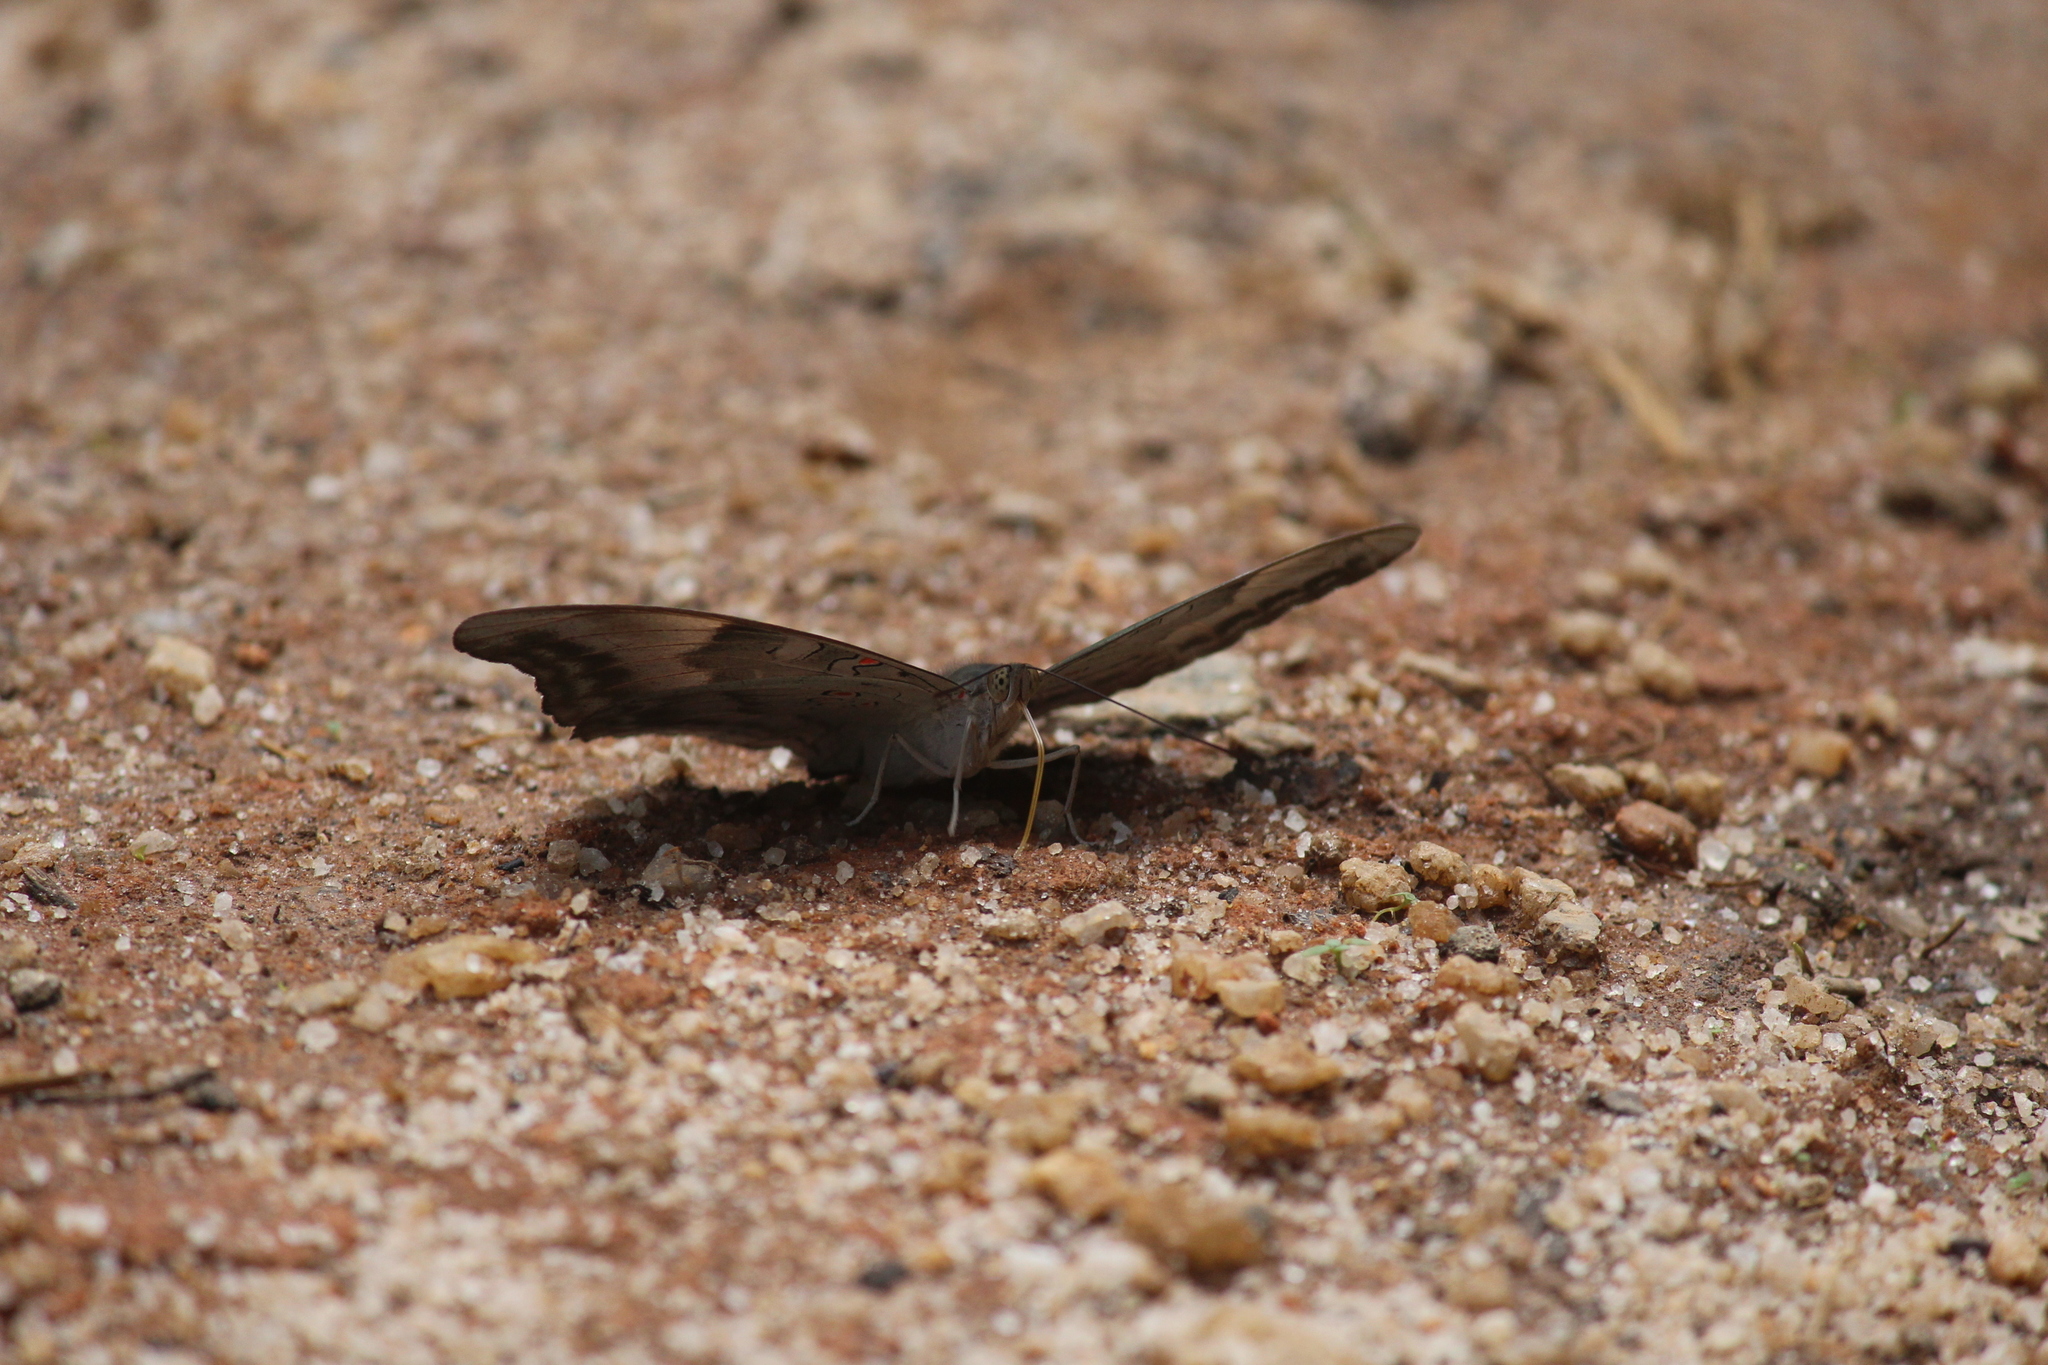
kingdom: Animalia
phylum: Arthropoda
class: Insecta
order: Lepidoptera
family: Nymphalidae
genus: Euthalia
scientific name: Euthalia Dophla evelina
